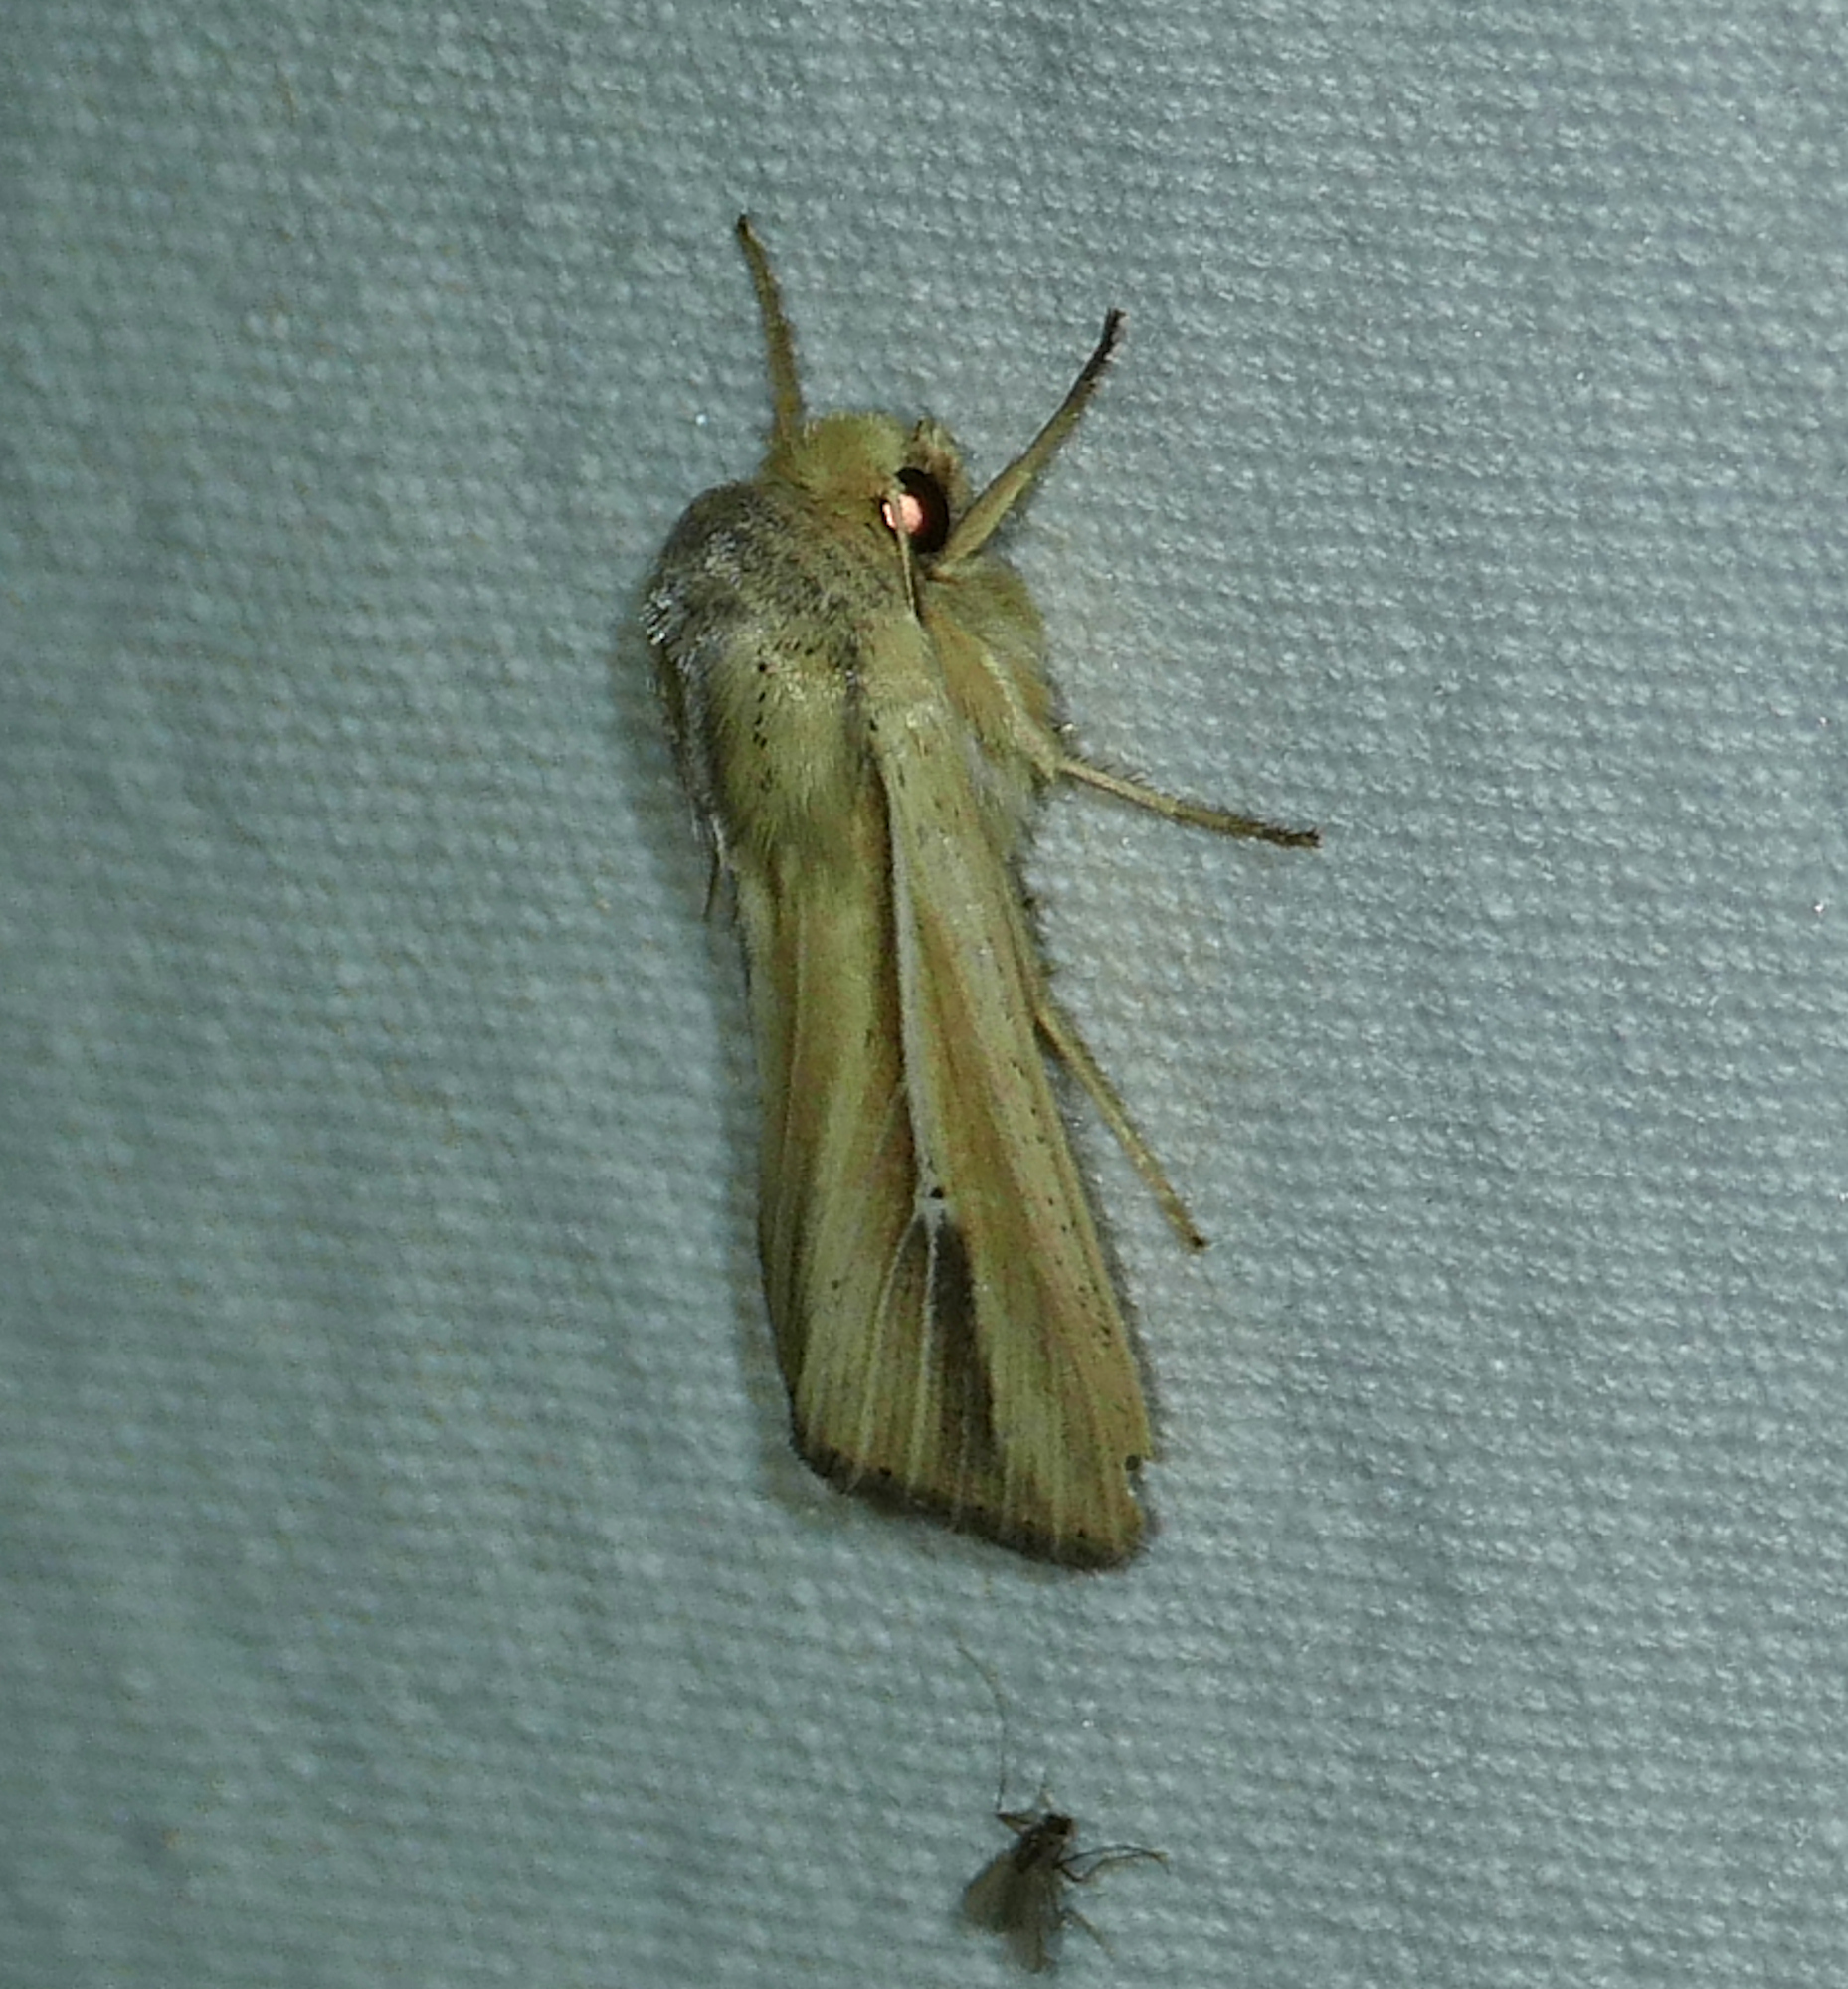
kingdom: Animalia
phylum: Arthropoda
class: Insecta
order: Lepidoptera
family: Noctuidae
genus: Leucania
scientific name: Leucania stolata
